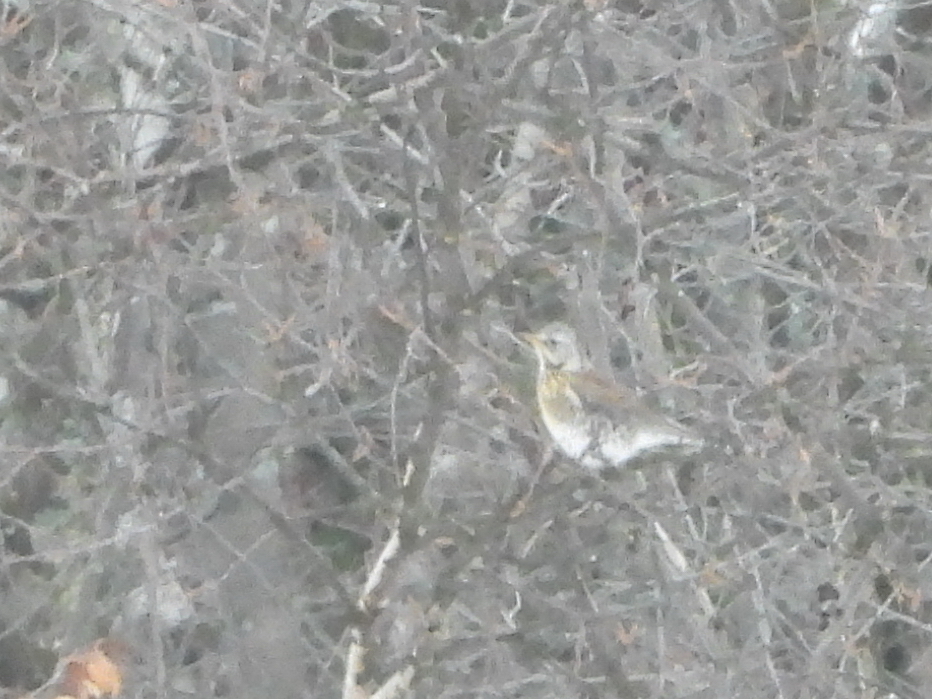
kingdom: Animalia
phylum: Chordata
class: Aves
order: Passeriformes
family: Turdidae
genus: Turdus
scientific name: Turdus pilaris
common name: Fieldfare
